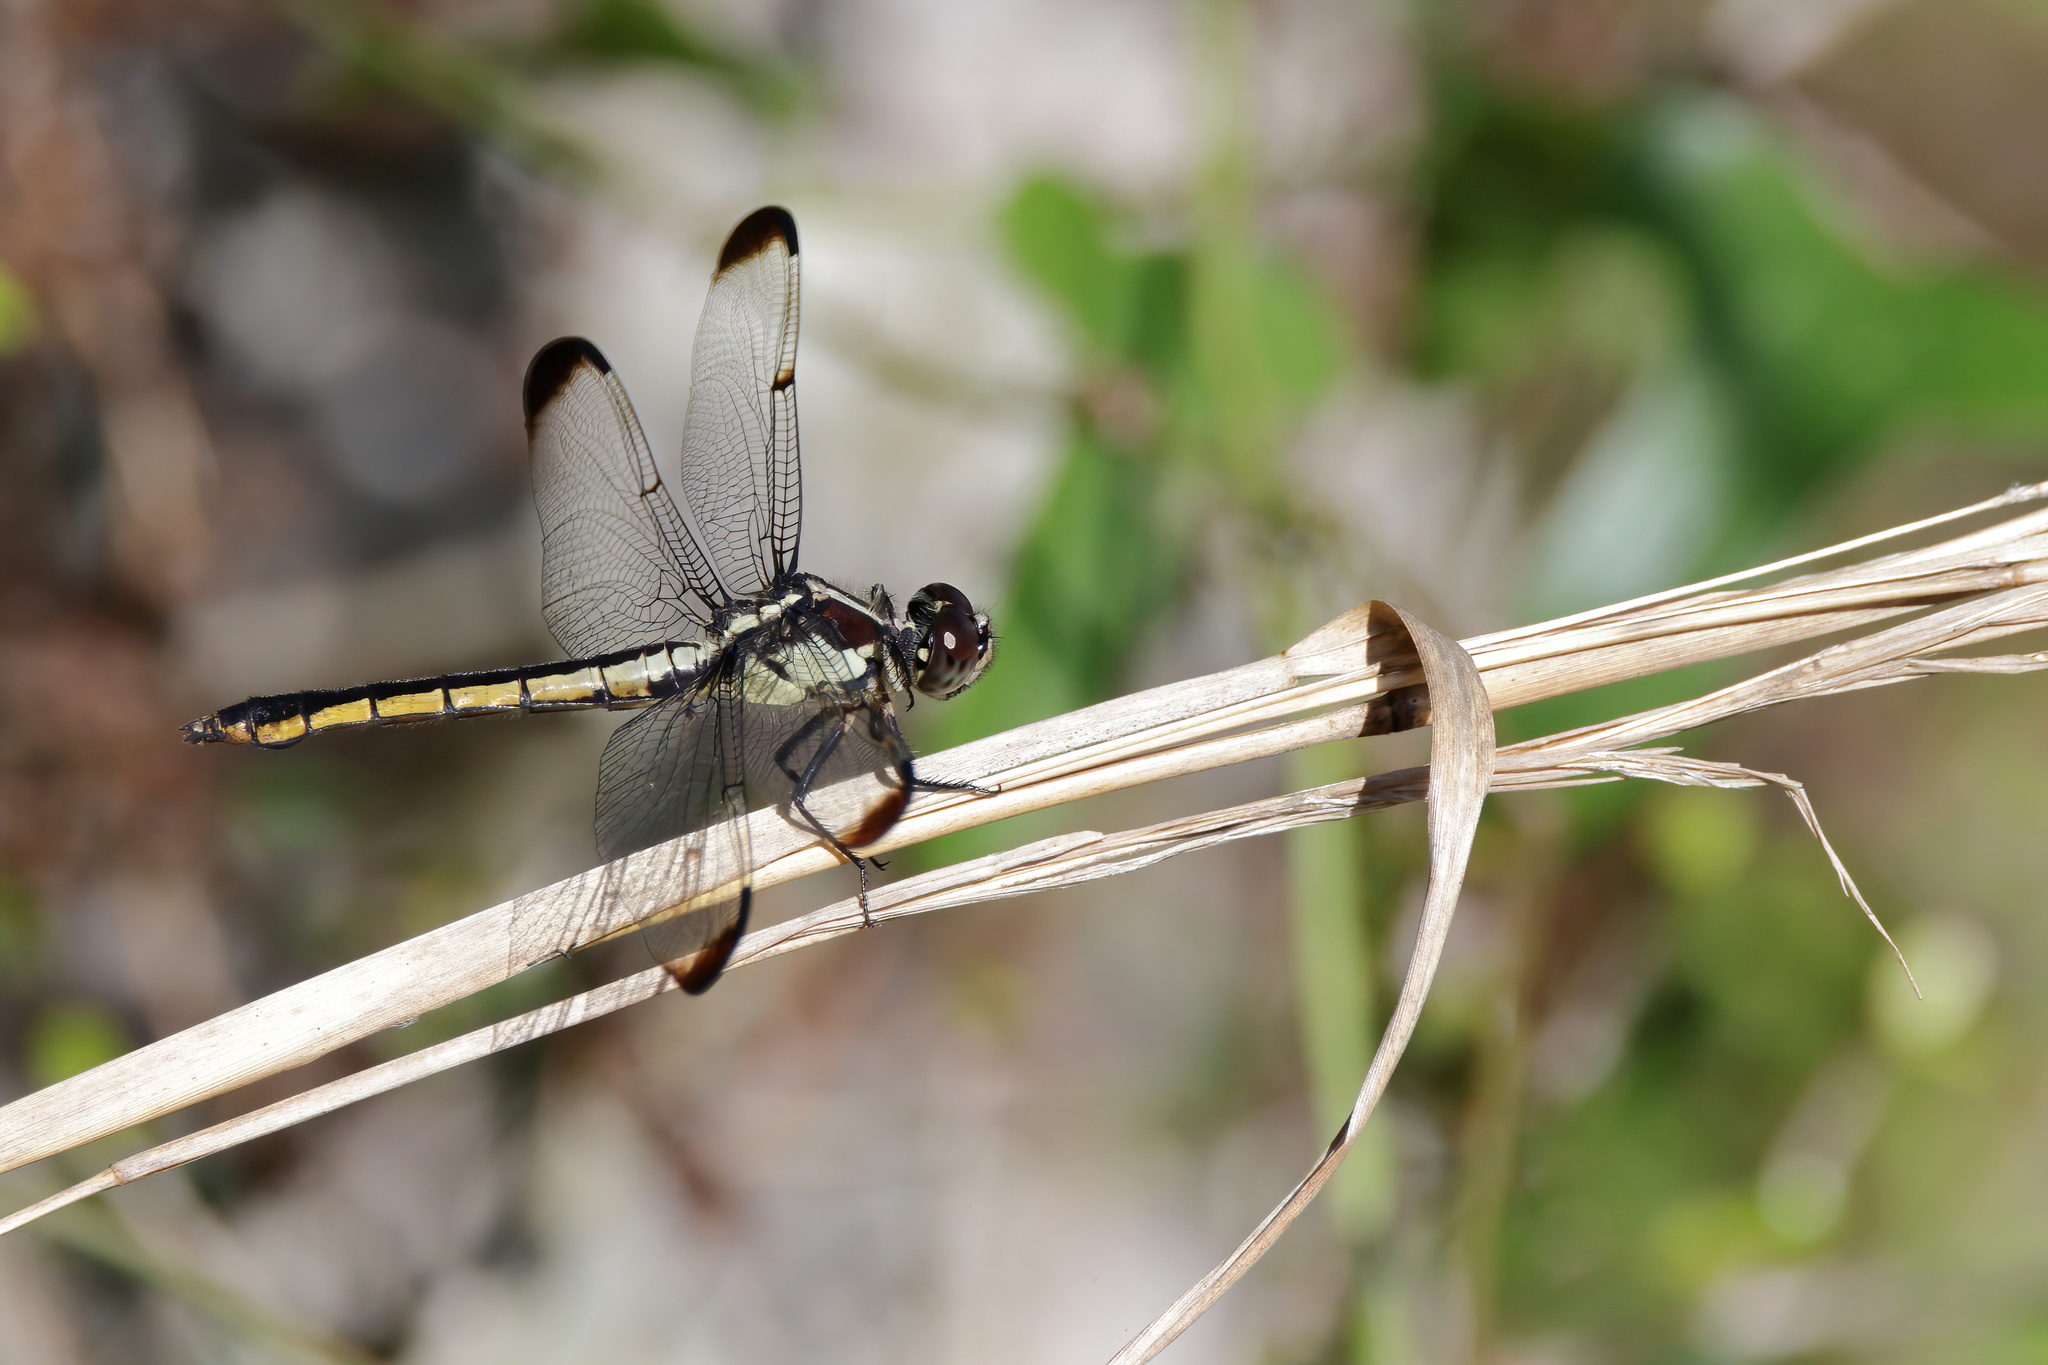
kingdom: Animalia
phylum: Arthropoda
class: Insecta
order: Odonata
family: Libellulidae
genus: Libellula
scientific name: Libellula incesta
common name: Slaty skimmer
